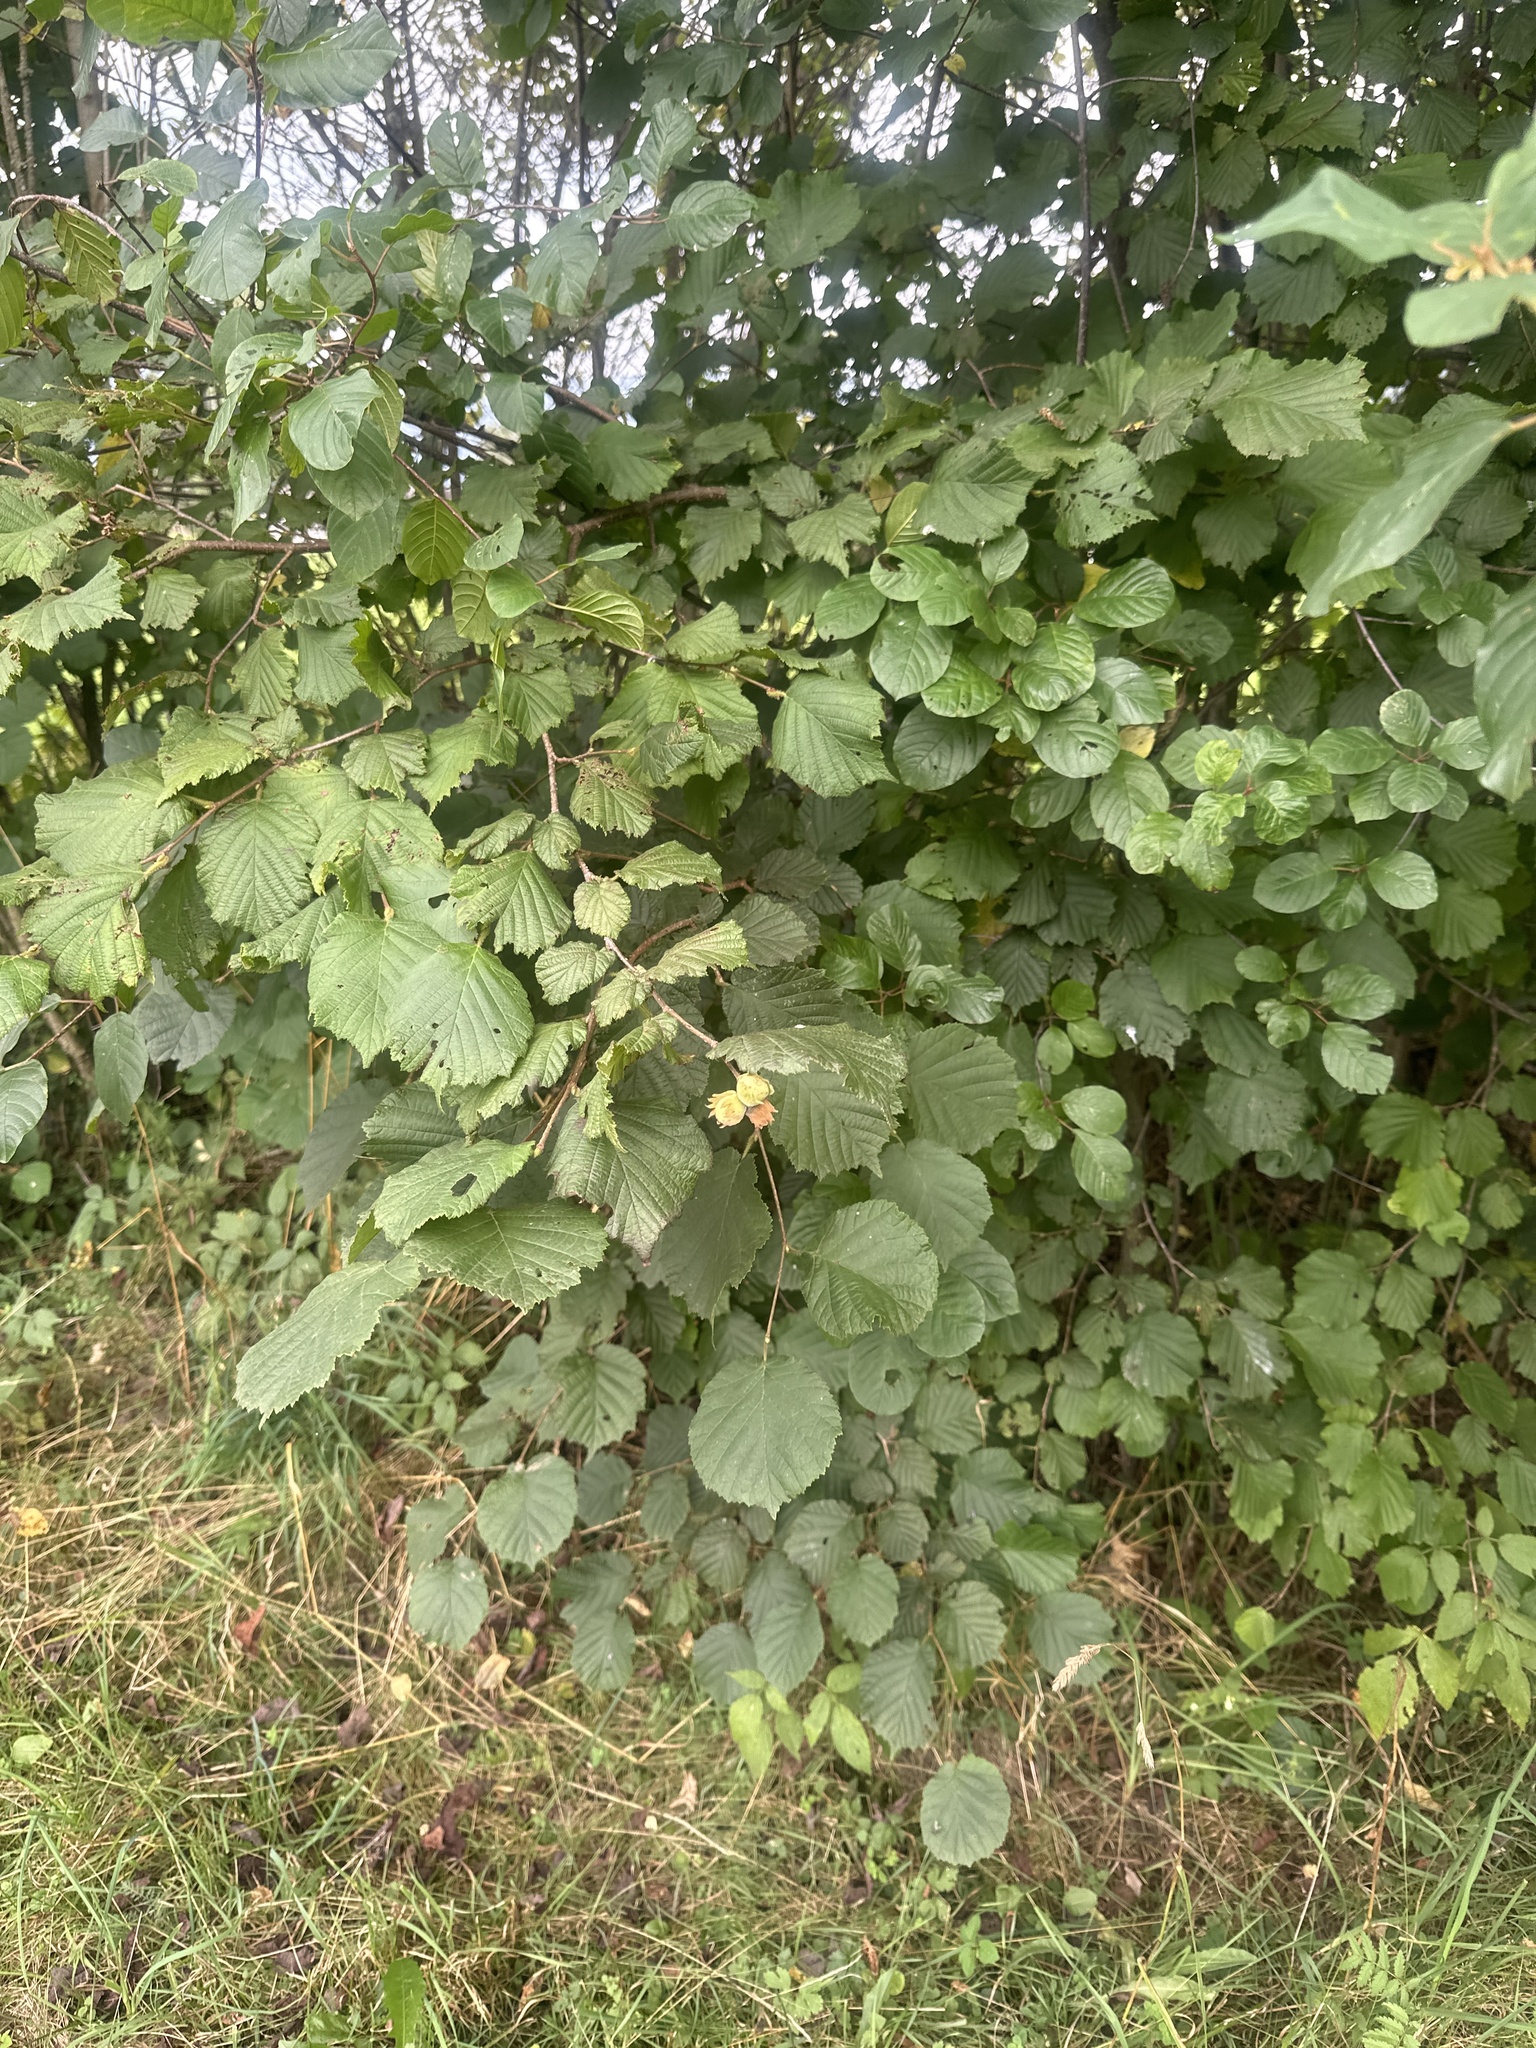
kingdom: Plantae
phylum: Tracheophyta
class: Magnoliopsida
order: Fagales
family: Betulaceae
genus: Corylus
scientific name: Corylus avellana
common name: European hazel
